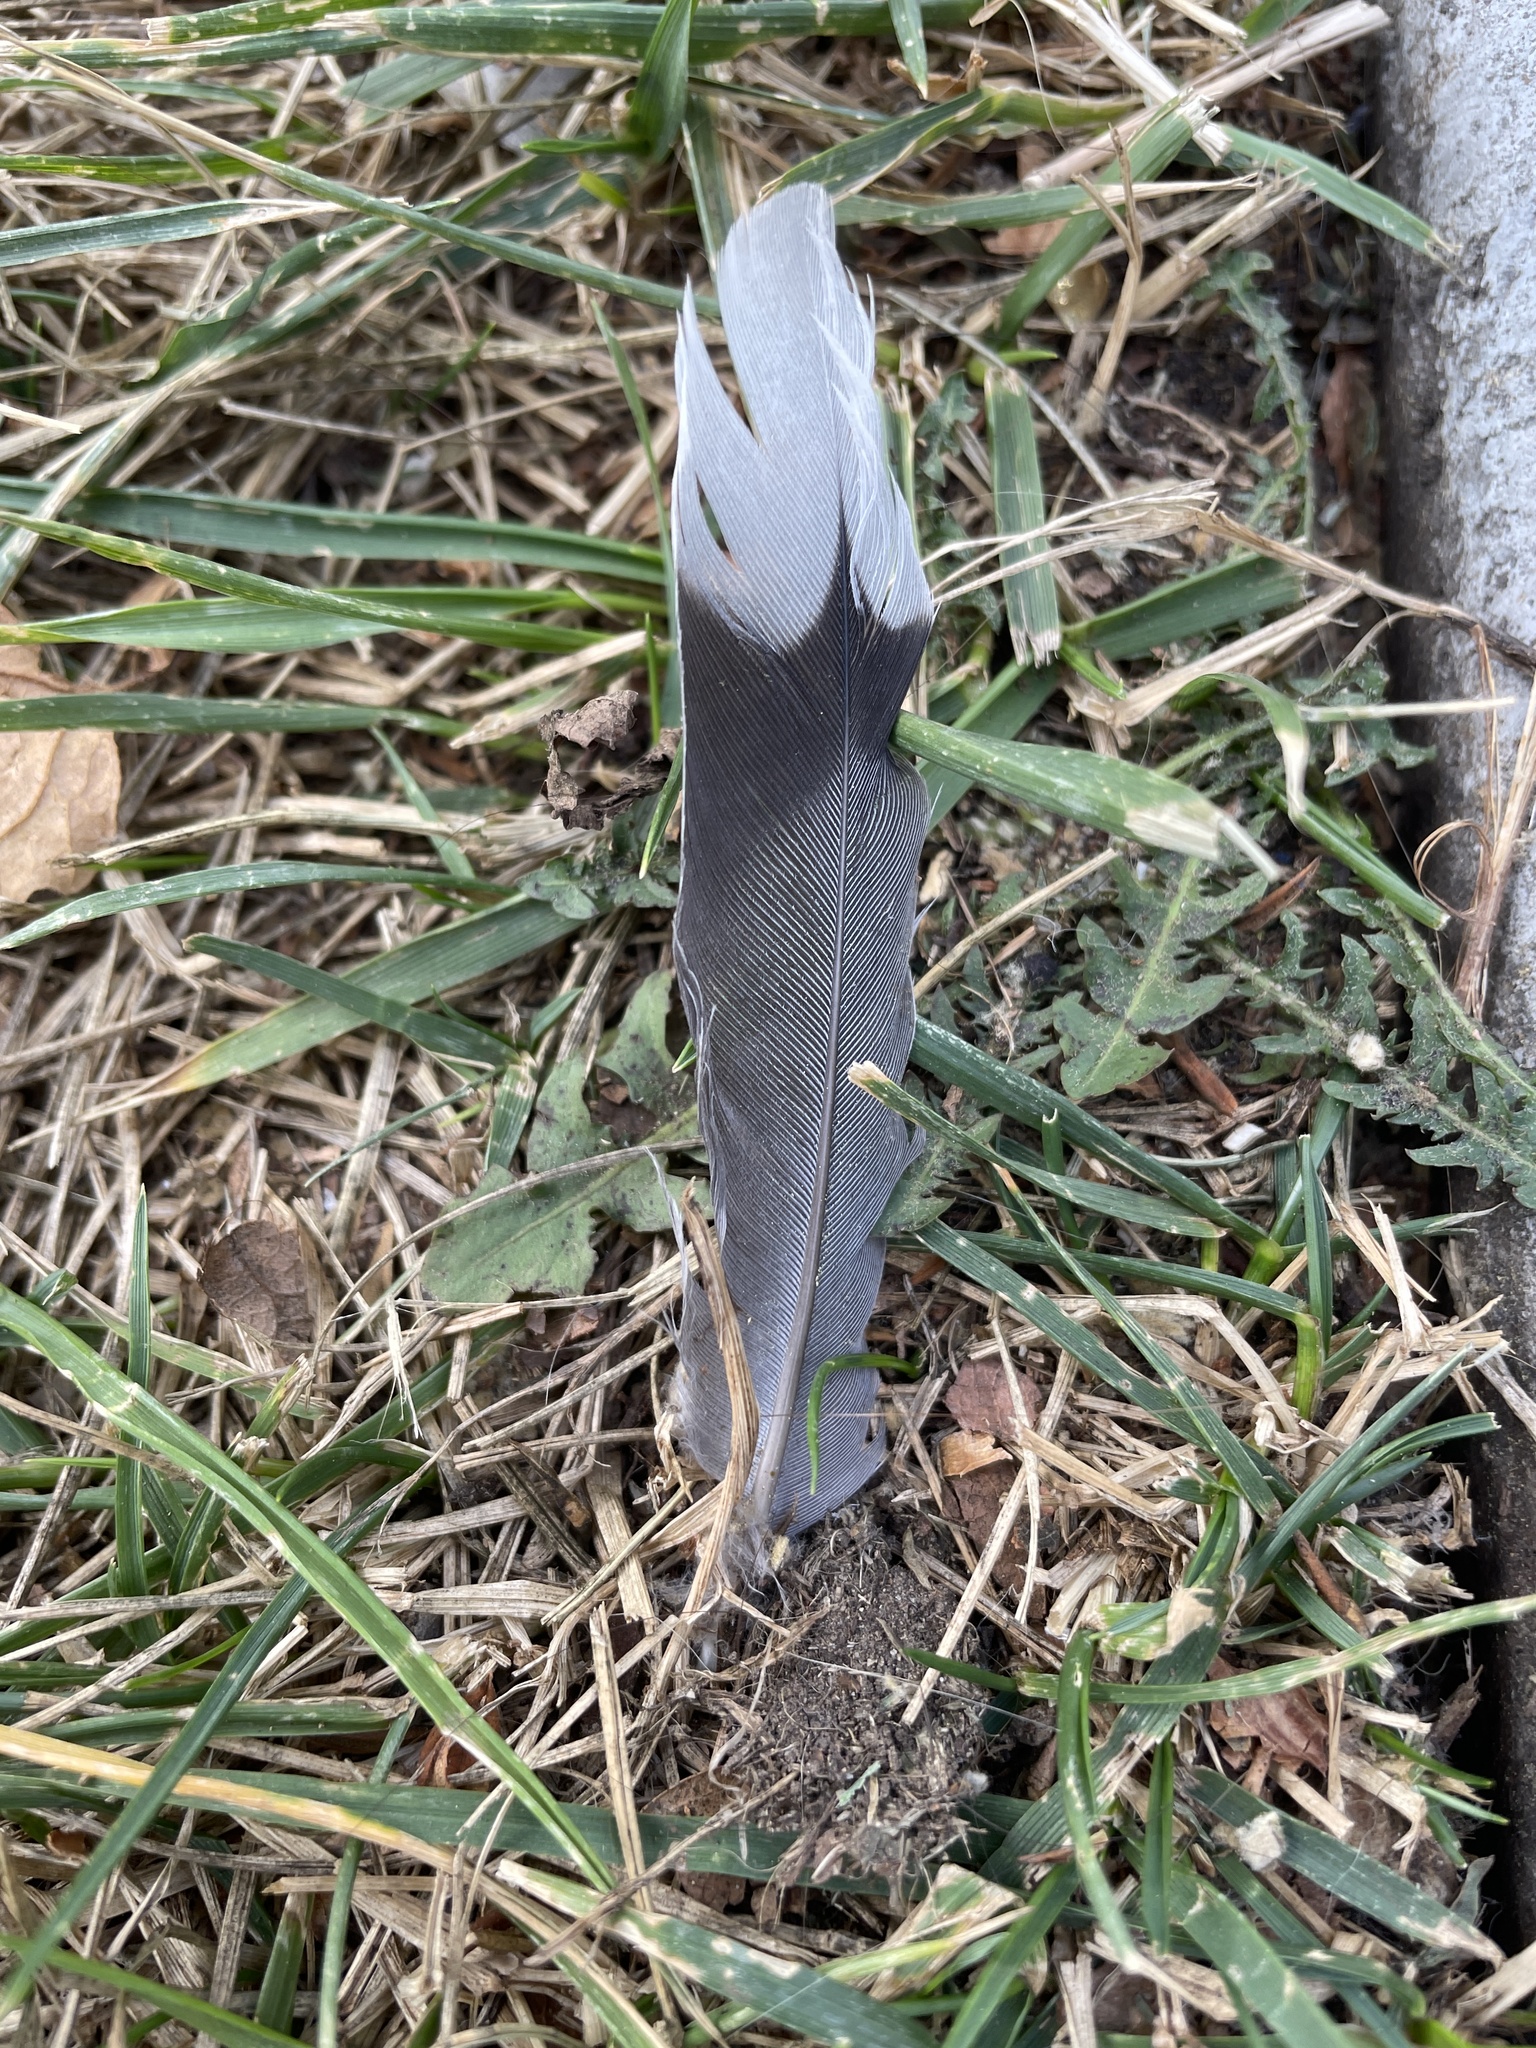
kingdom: Animalia
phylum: Chordata
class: Aves
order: Columbiformes
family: Columbidae
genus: Zenaida
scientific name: Zenaida macroura
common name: Mourning dove
